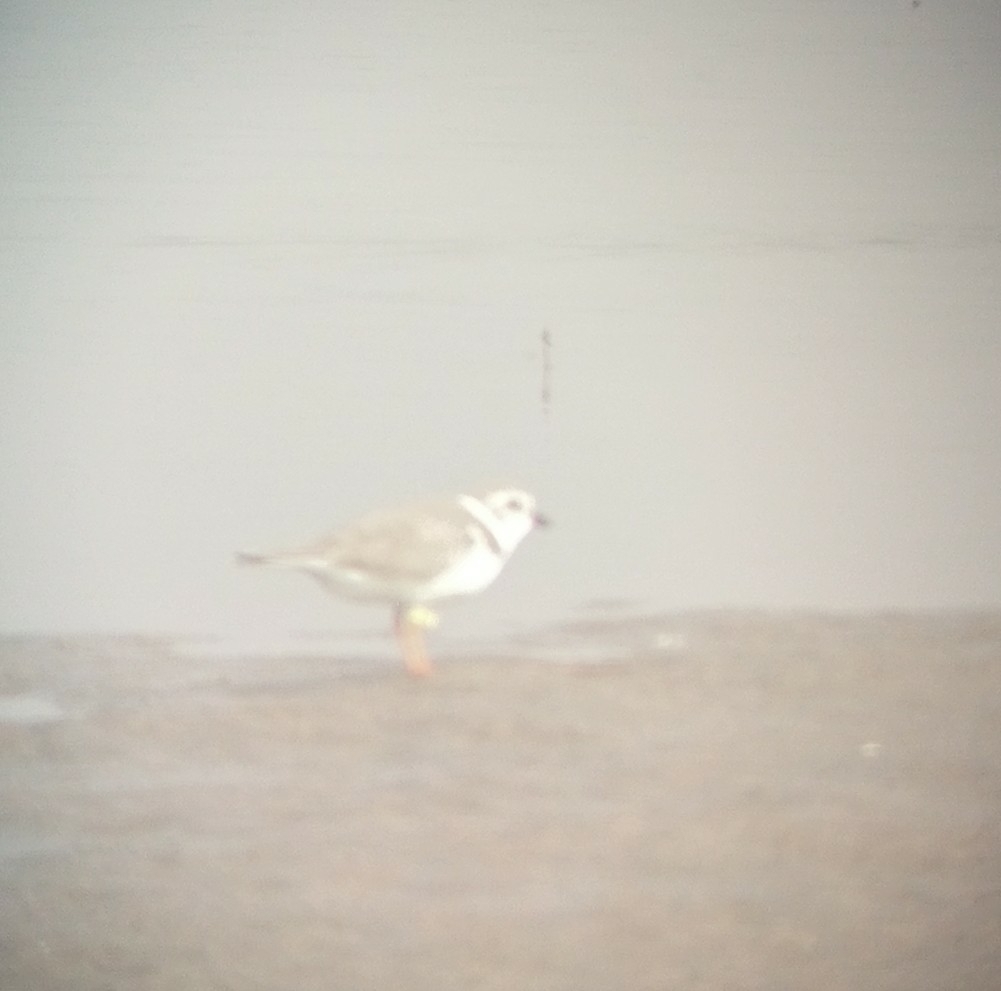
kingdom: Animalia
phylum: Chordata
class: Aves
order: Charadriiformes
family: Charadriidae
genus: Charadrius
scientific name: Charadrius melodus
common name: Piping plover
